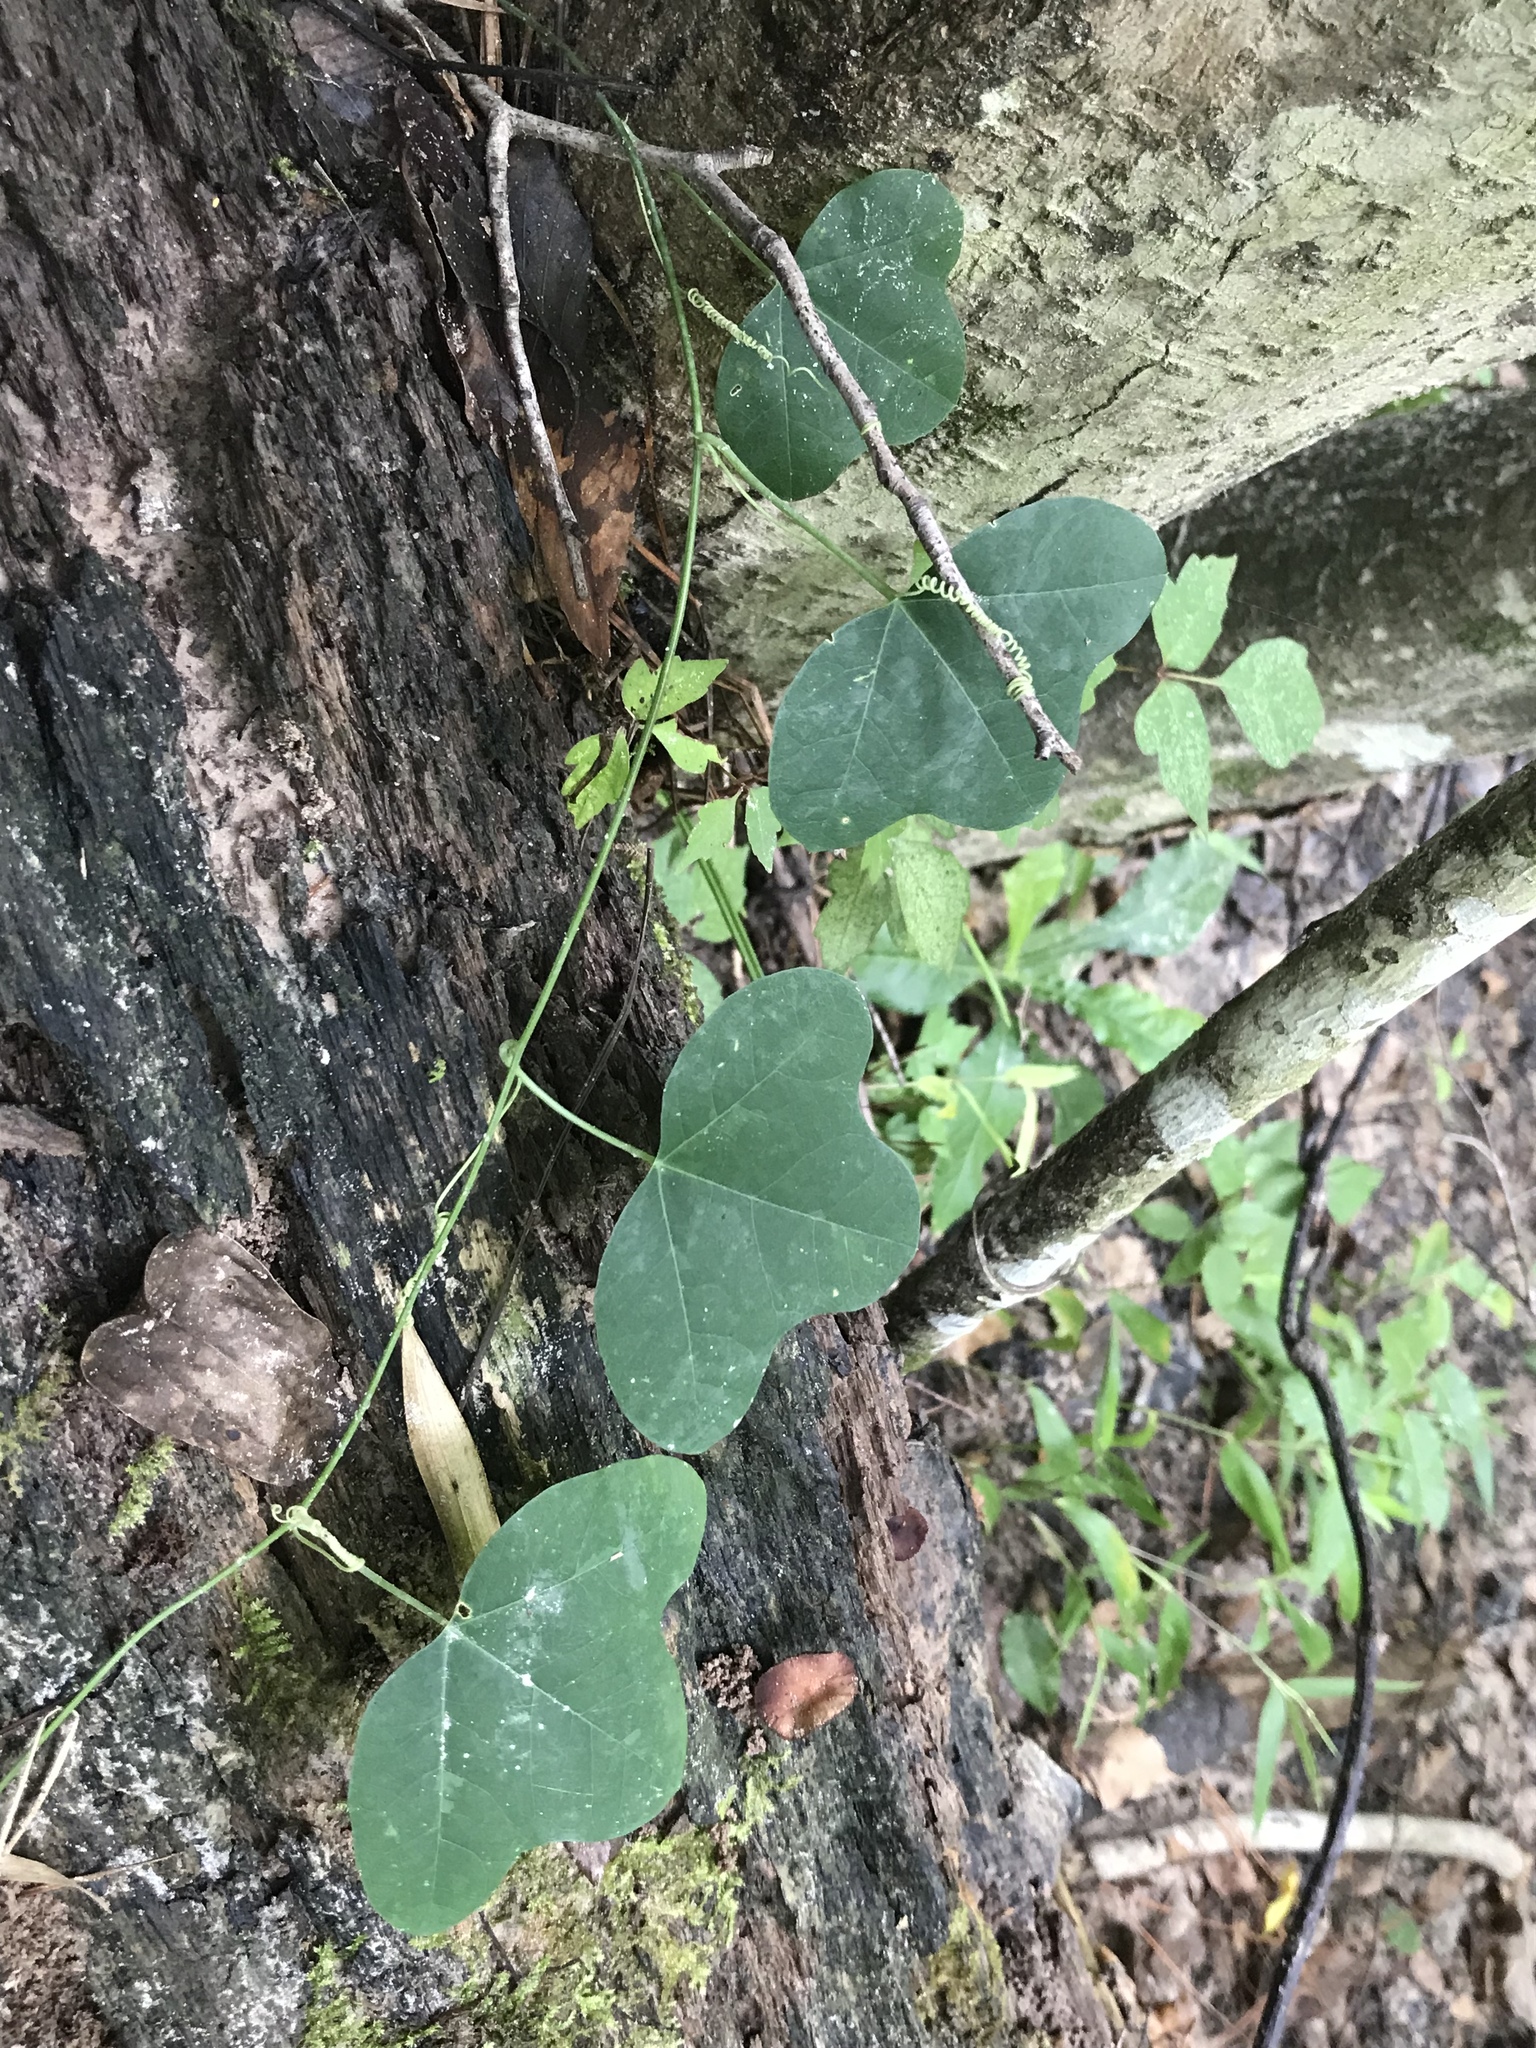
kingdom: Plantae
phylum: Tracheophyta
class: Magnoliopsida
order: Malpighiales
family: Passifloraceae
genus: Passiflora
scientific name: Passiflora lutea
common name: Yellow passionflower
